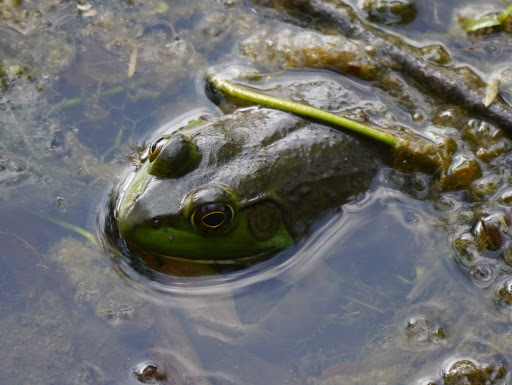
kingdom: Animalia
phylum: Chordata
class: Amphibia
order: Anura
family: Ranidae
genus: Lithobates
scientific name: Lithobates catesbeianus
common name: American bullfrog
